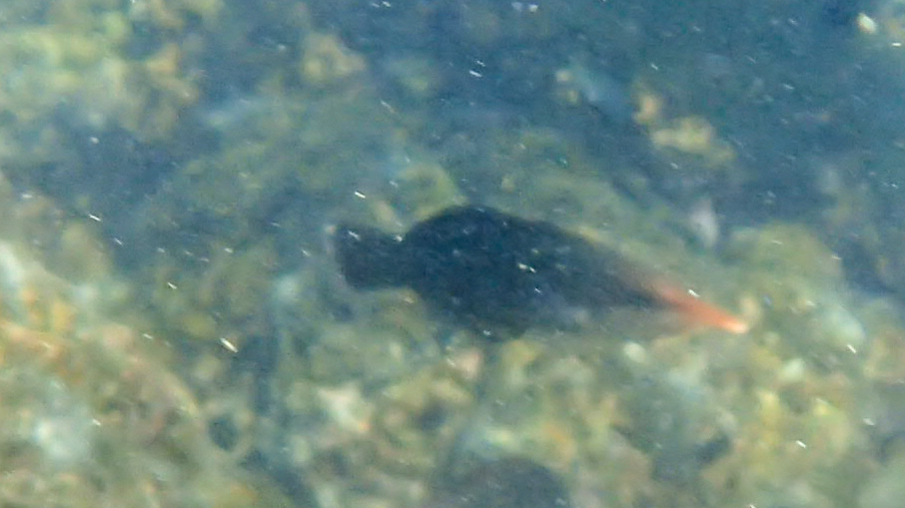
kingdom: Animalia
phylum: Chordata
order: Perciformes
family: Labridae
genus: Gomphosus
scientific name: Gomphosus varius
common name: Bird wrasse
